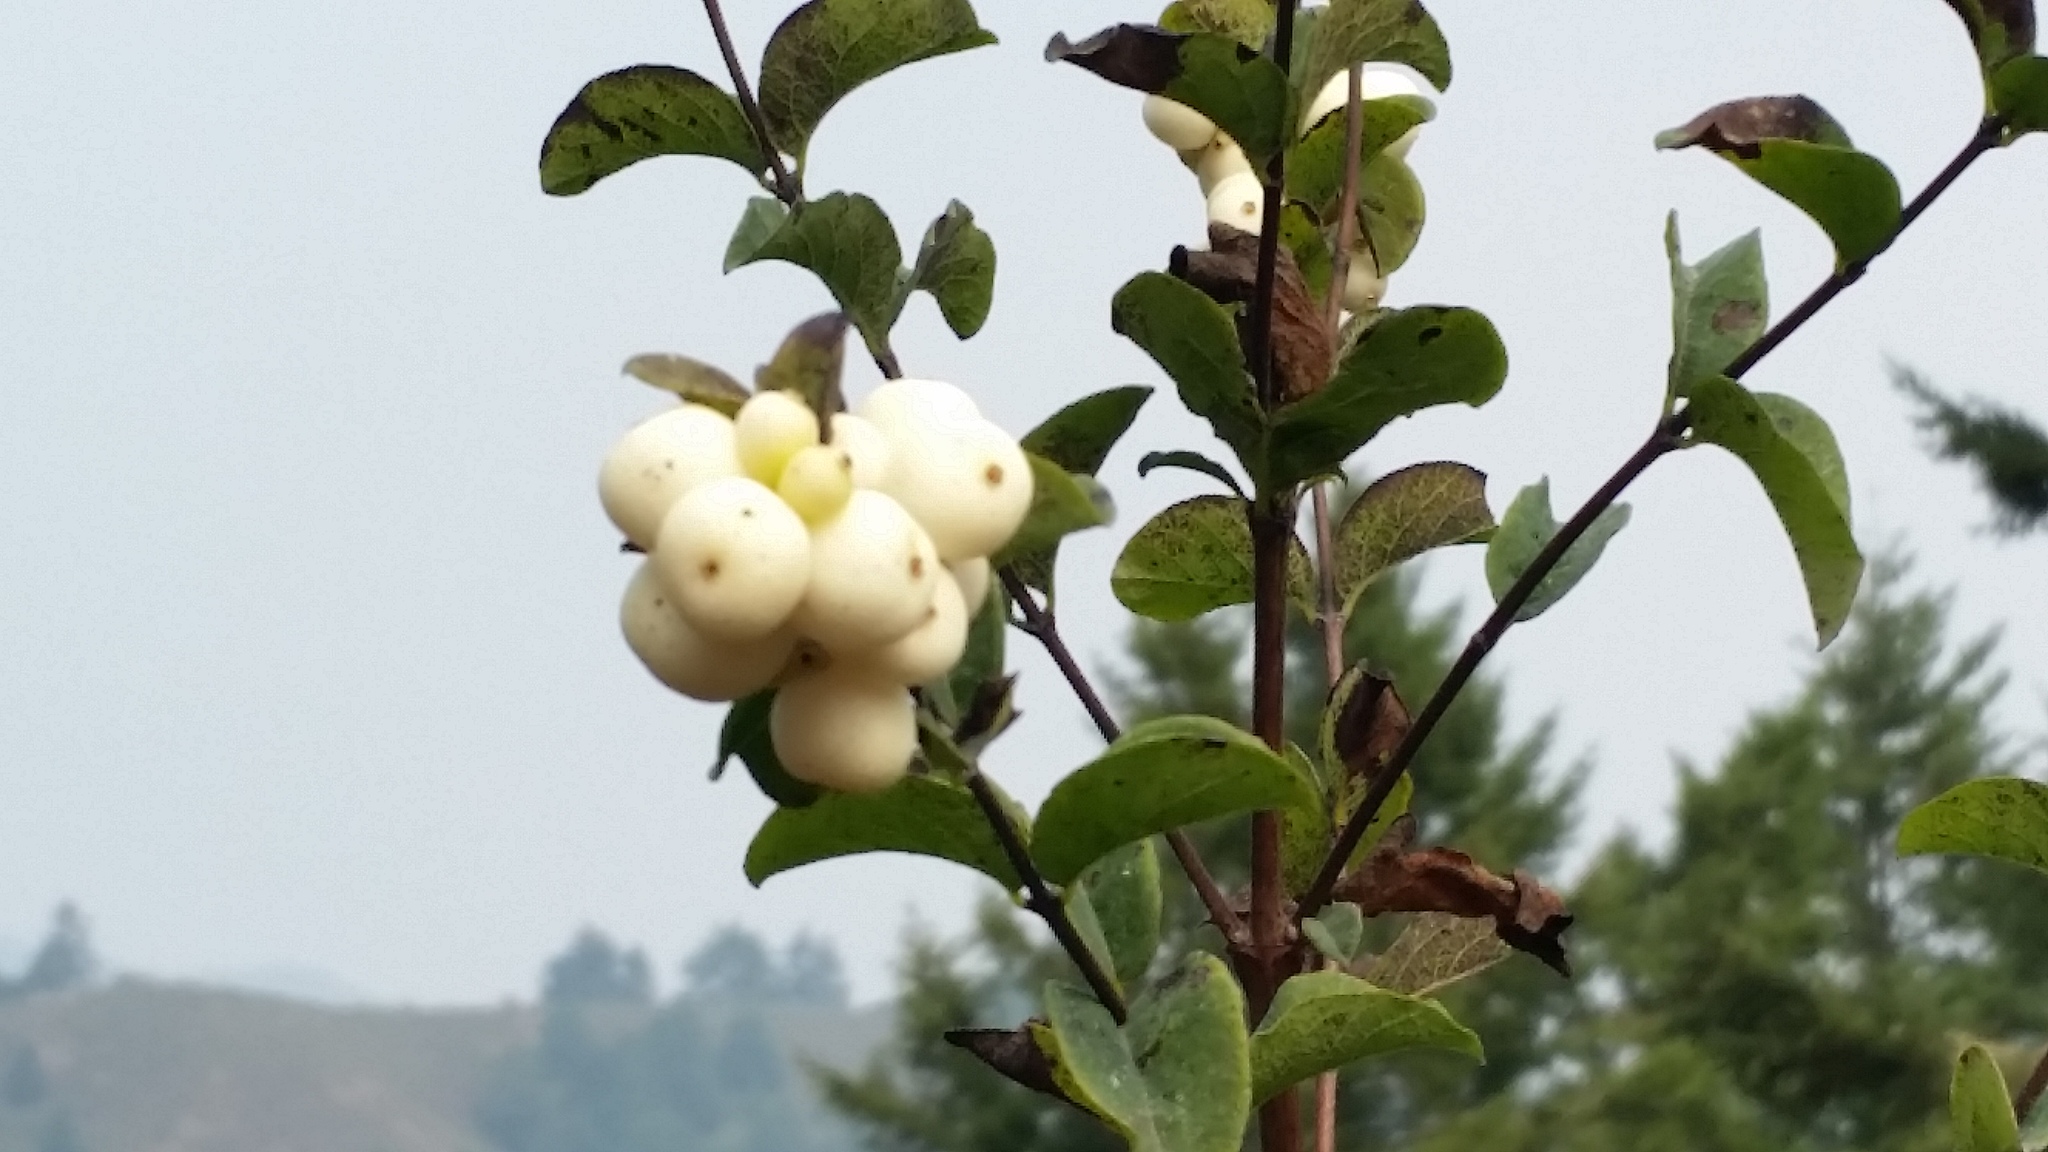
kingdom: Plantae
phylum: Tracheophyta
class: Magnoliopsida
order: Dipsacales
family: Caprifoliaceae
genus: Symphoricarpos
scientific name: Symphoricarpos albus
